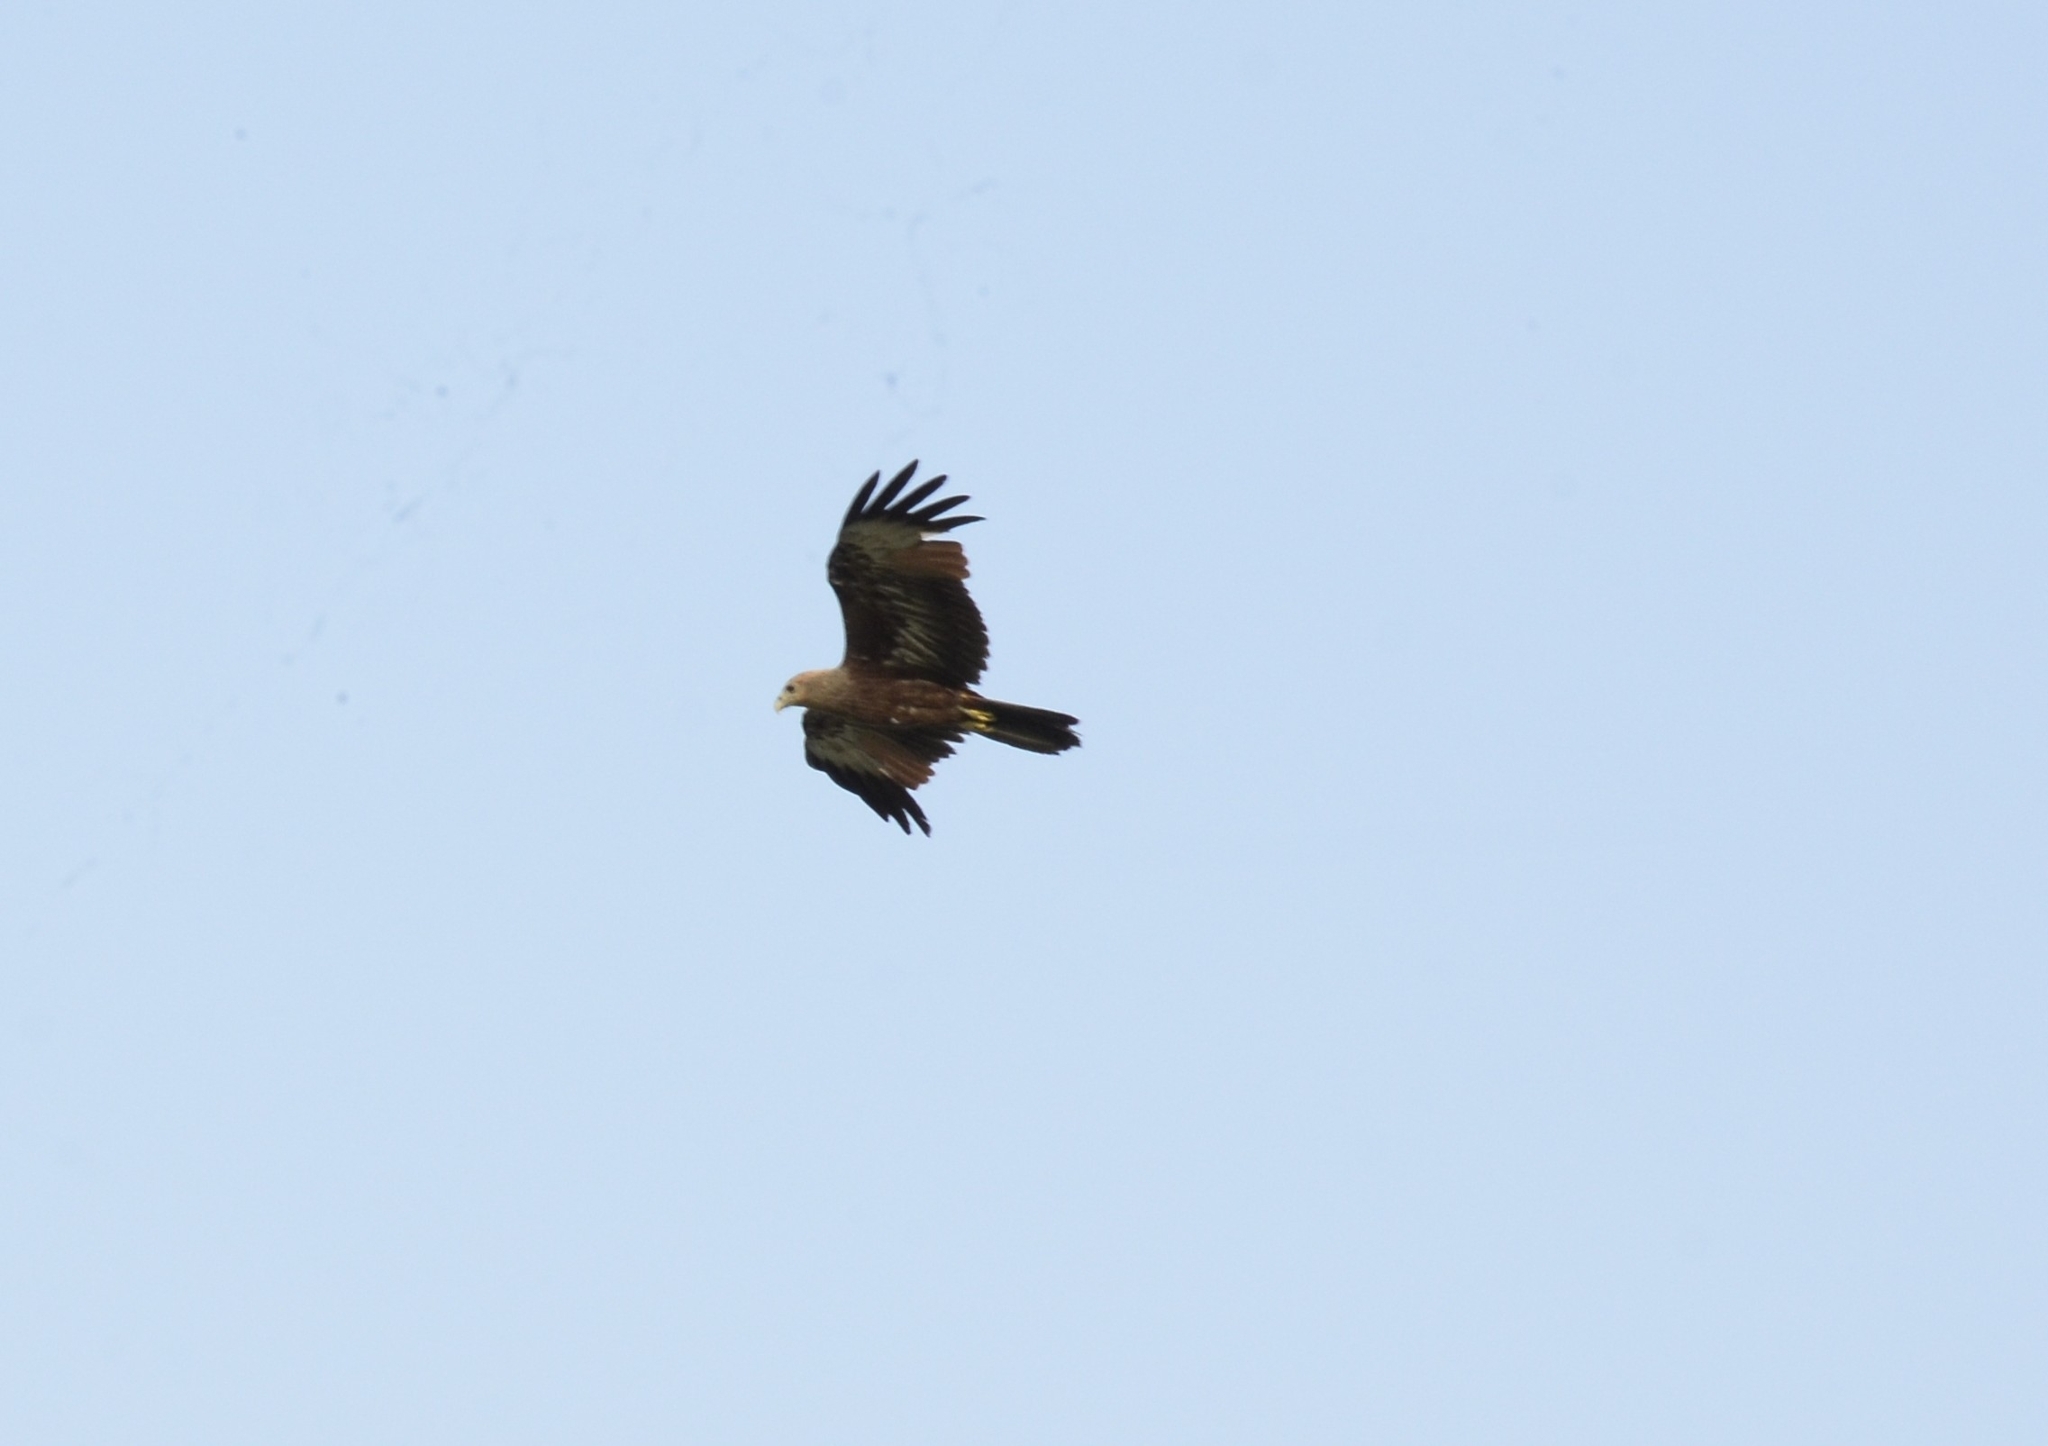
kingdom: Animalia
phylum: Chordata
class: Aves
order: Accipitriformes
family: Accipitridae
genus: Haliastur
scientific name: Haliastur indus
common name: Brahminy kite
